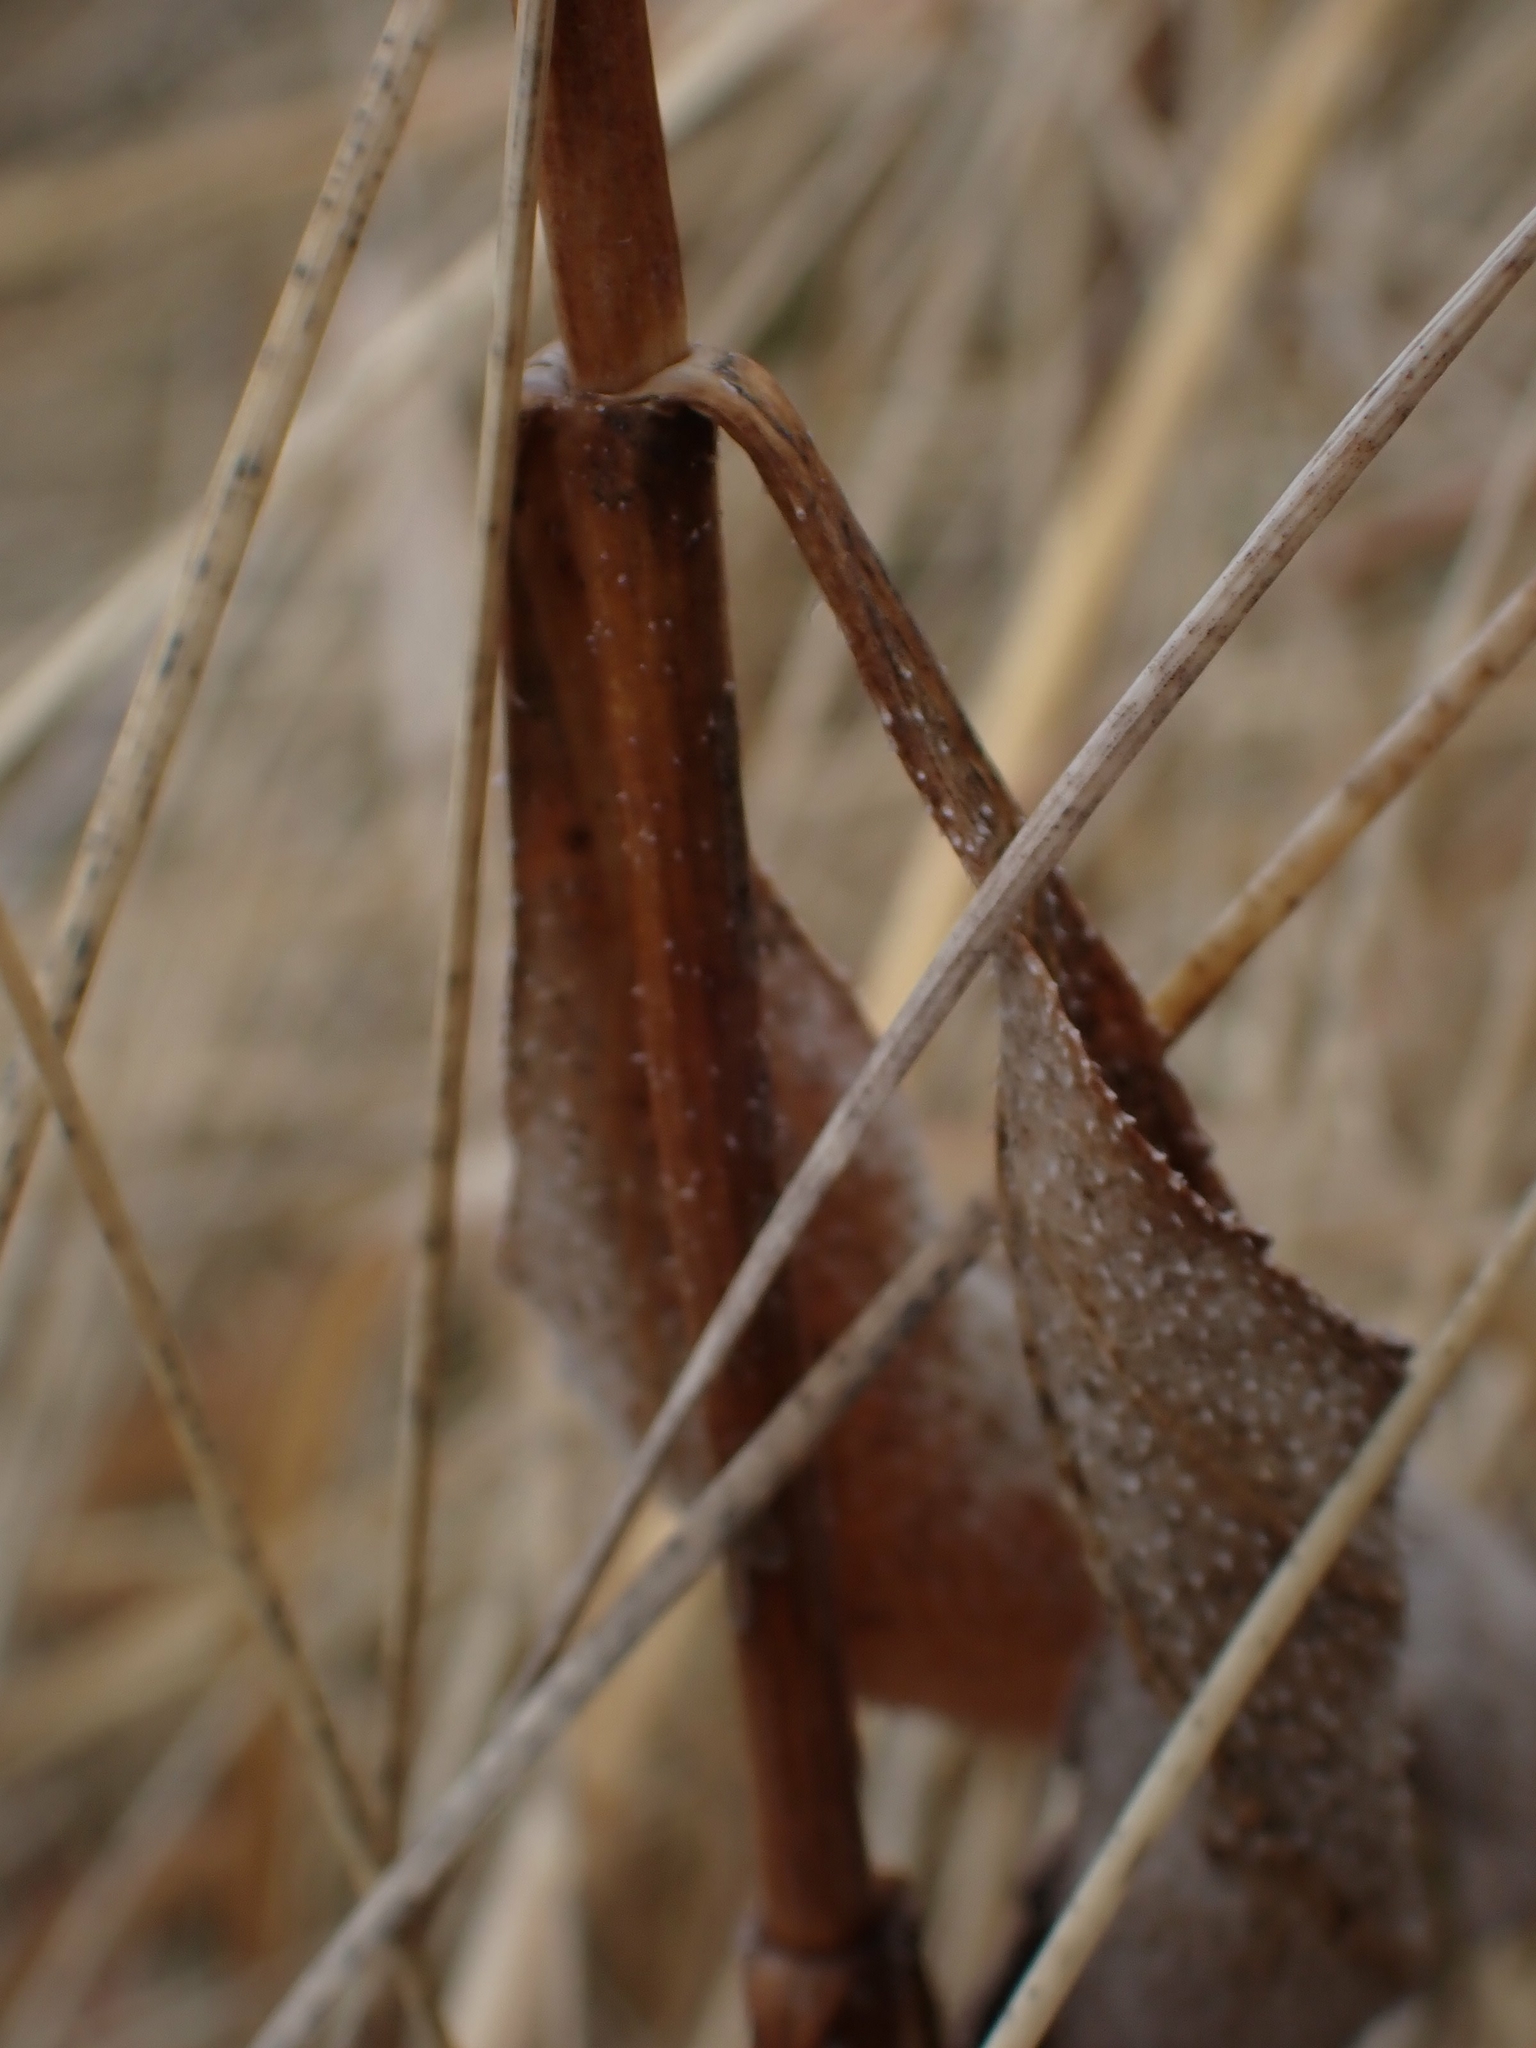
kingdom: Plantae
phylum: Tracheophyta
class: Magnoliopsida
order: Asterales
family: Asteraceae
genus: Helianthus
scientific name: Helianthus pauciflorus
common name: Stiff sunflower
